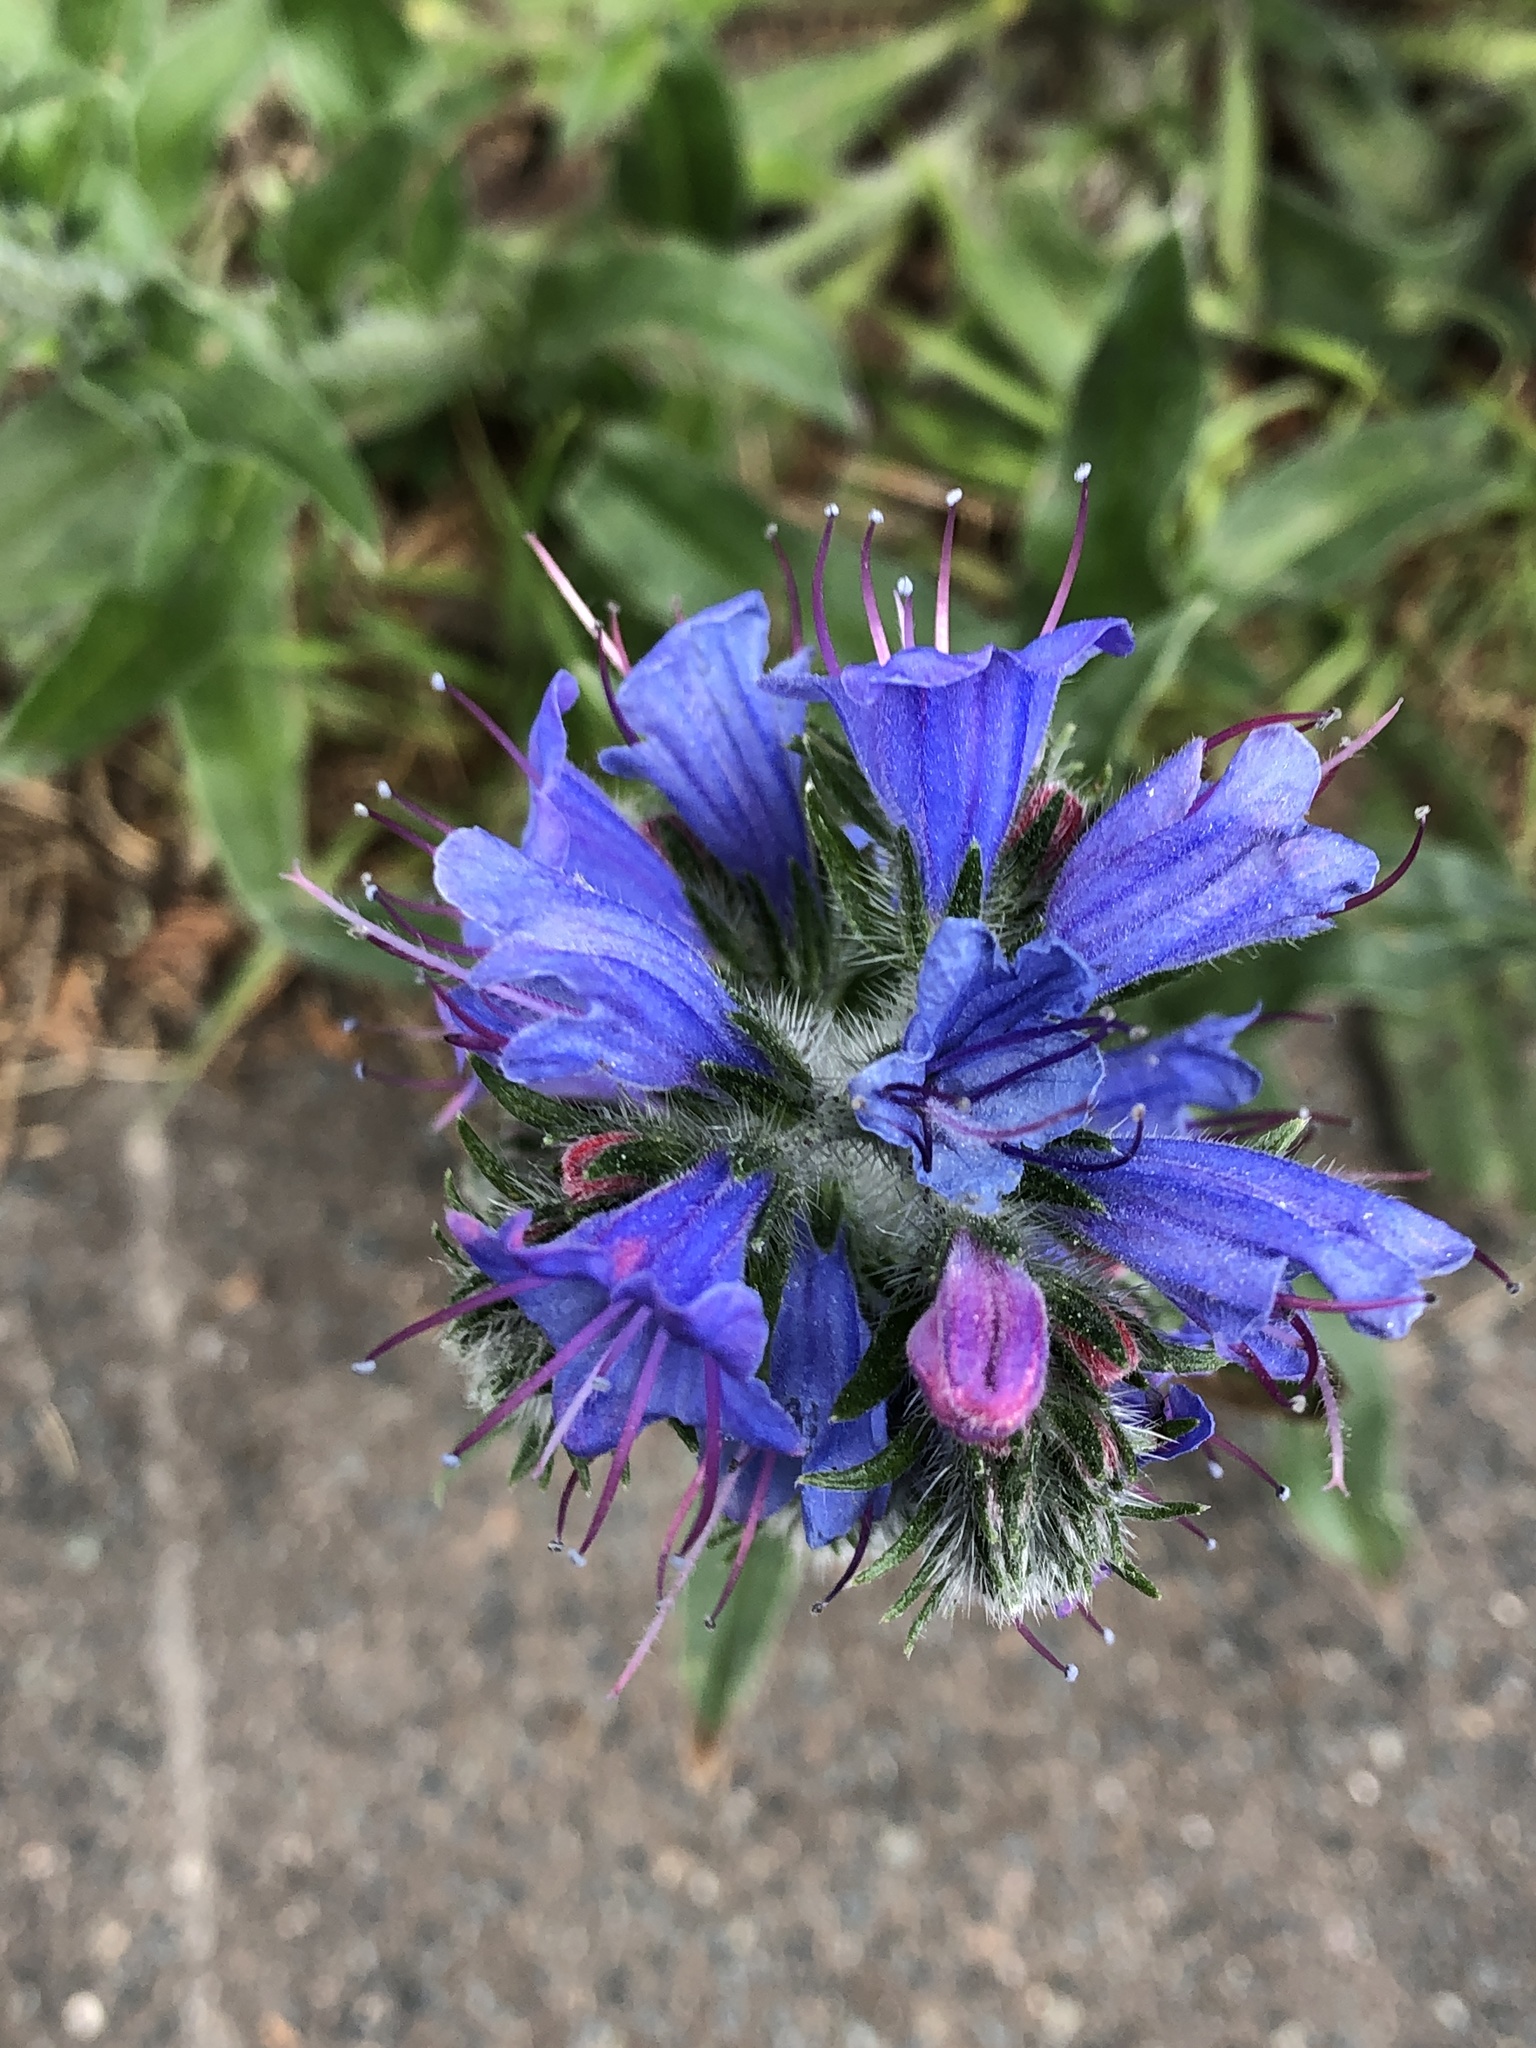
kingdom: Plantae
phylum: Tracheophyta
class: Magnoliopsida
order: Boraginales
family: Boraginaceae
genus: Echium
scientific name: Echium vulgare
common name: Common viper's bugloss
